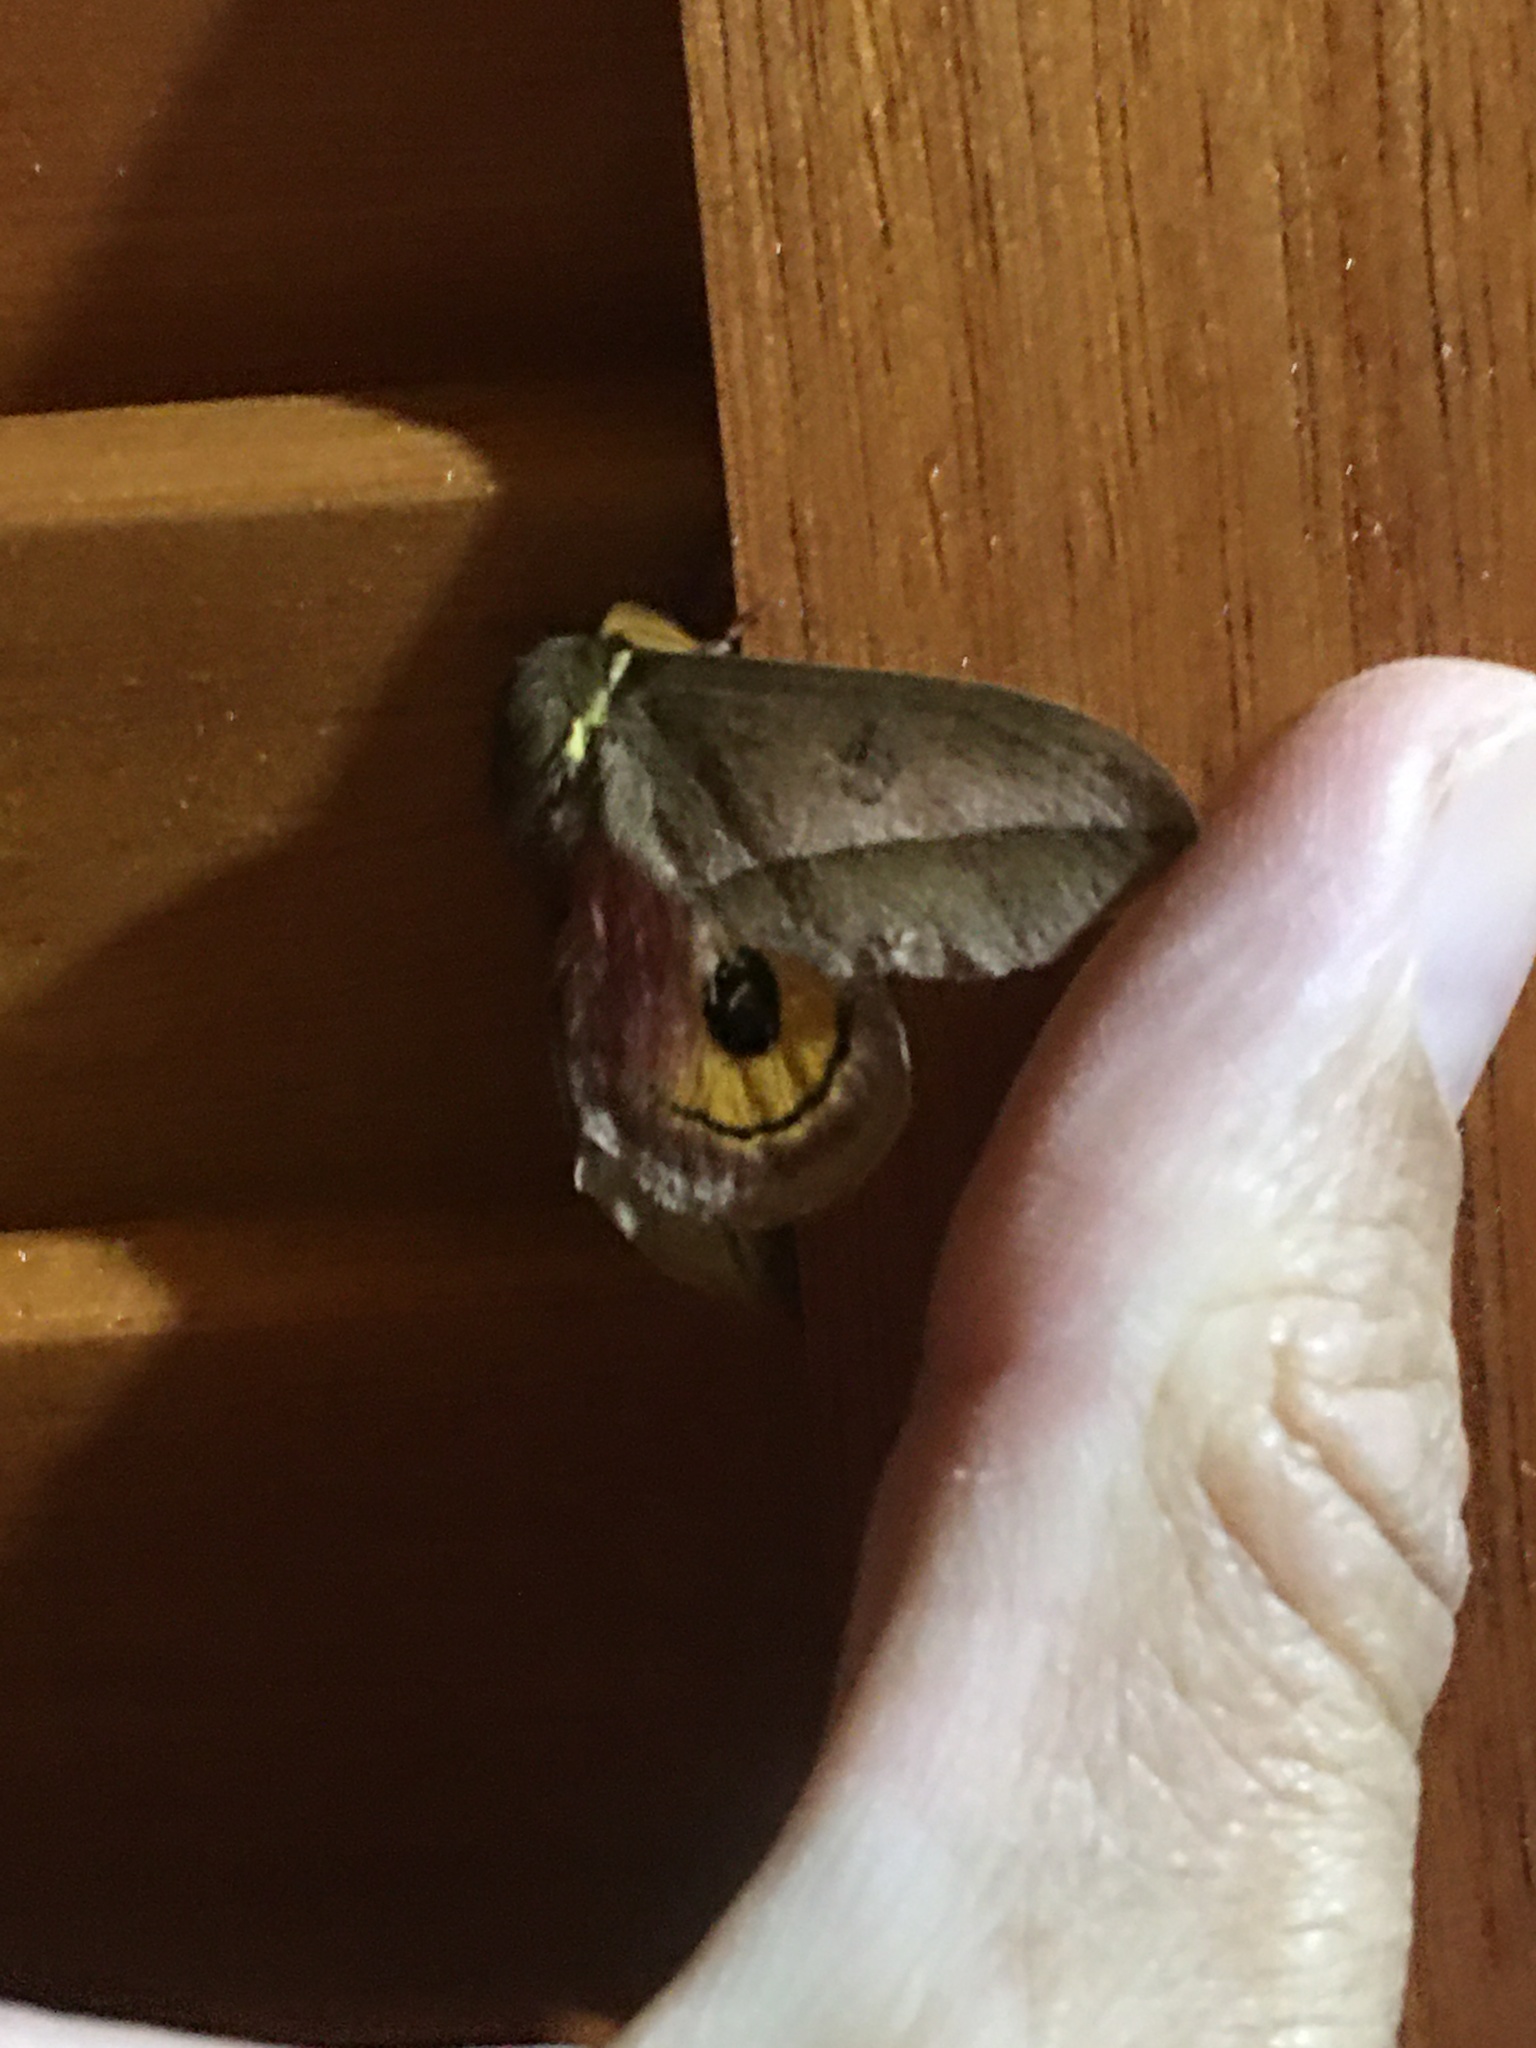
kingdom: Animalia
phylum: Arthropoda
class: Insecta
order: Lepidoptera
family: Saturniidae
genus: Automeris
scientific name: Automeris ovalina
